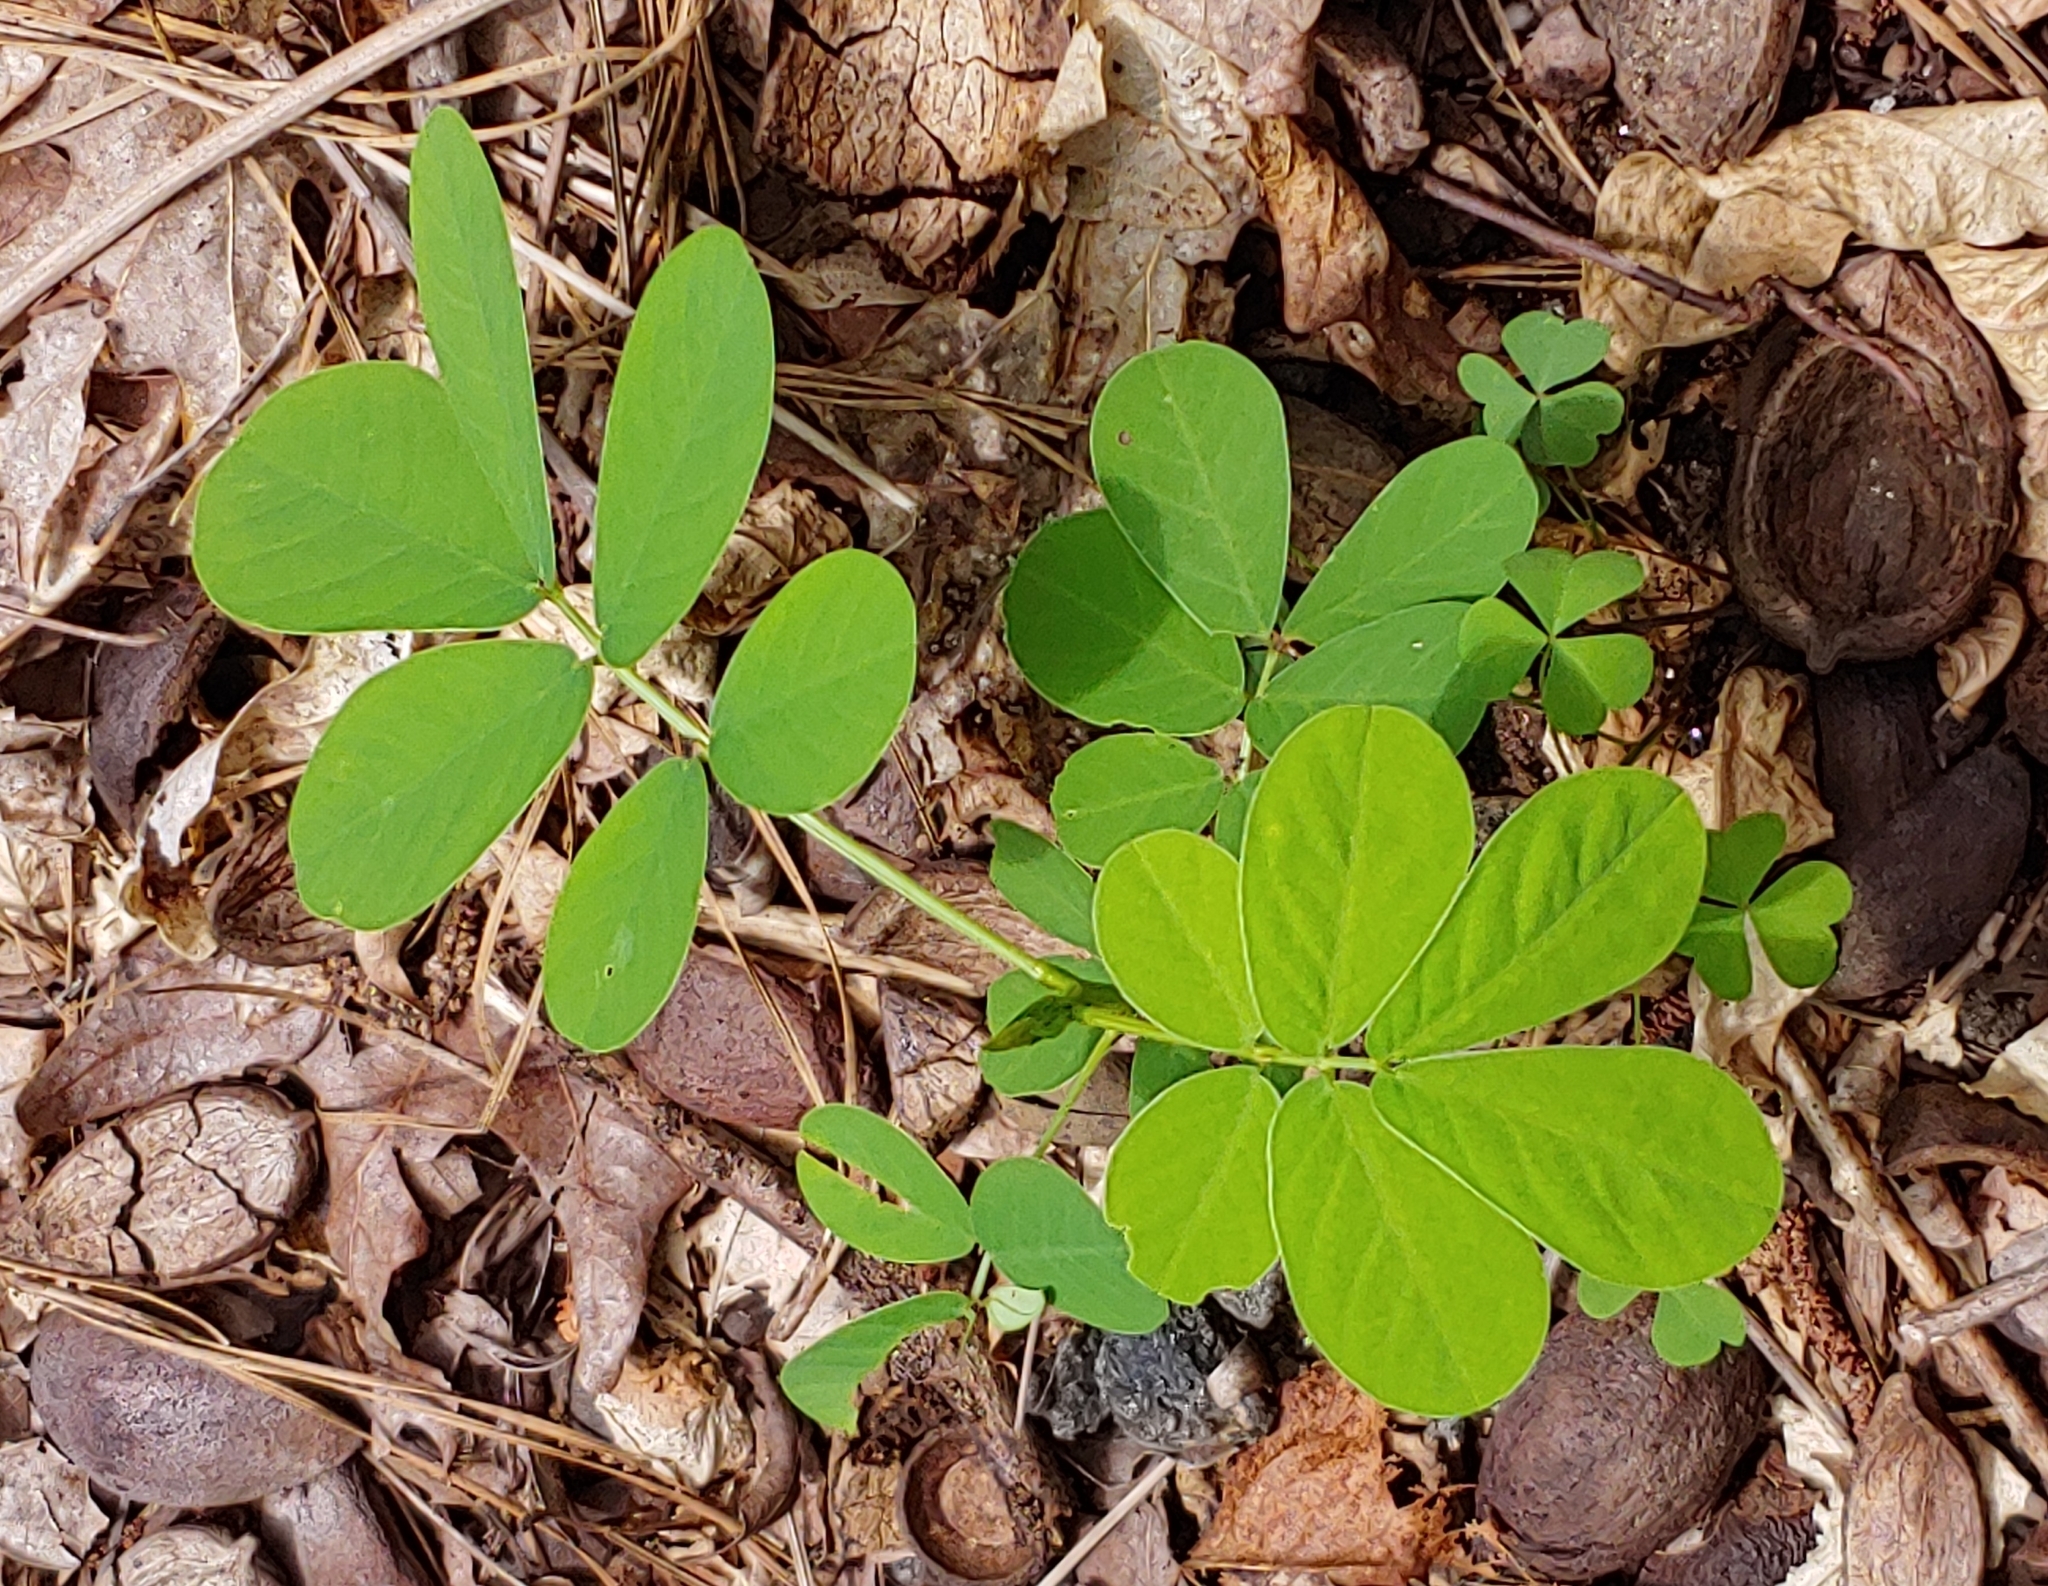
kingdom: Plantae
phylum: Tracheophyta
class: Magnoliopsida
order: Fabales
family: Fabaceae
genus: Senna
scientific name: Senna obtusifolia
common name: Java-bean
